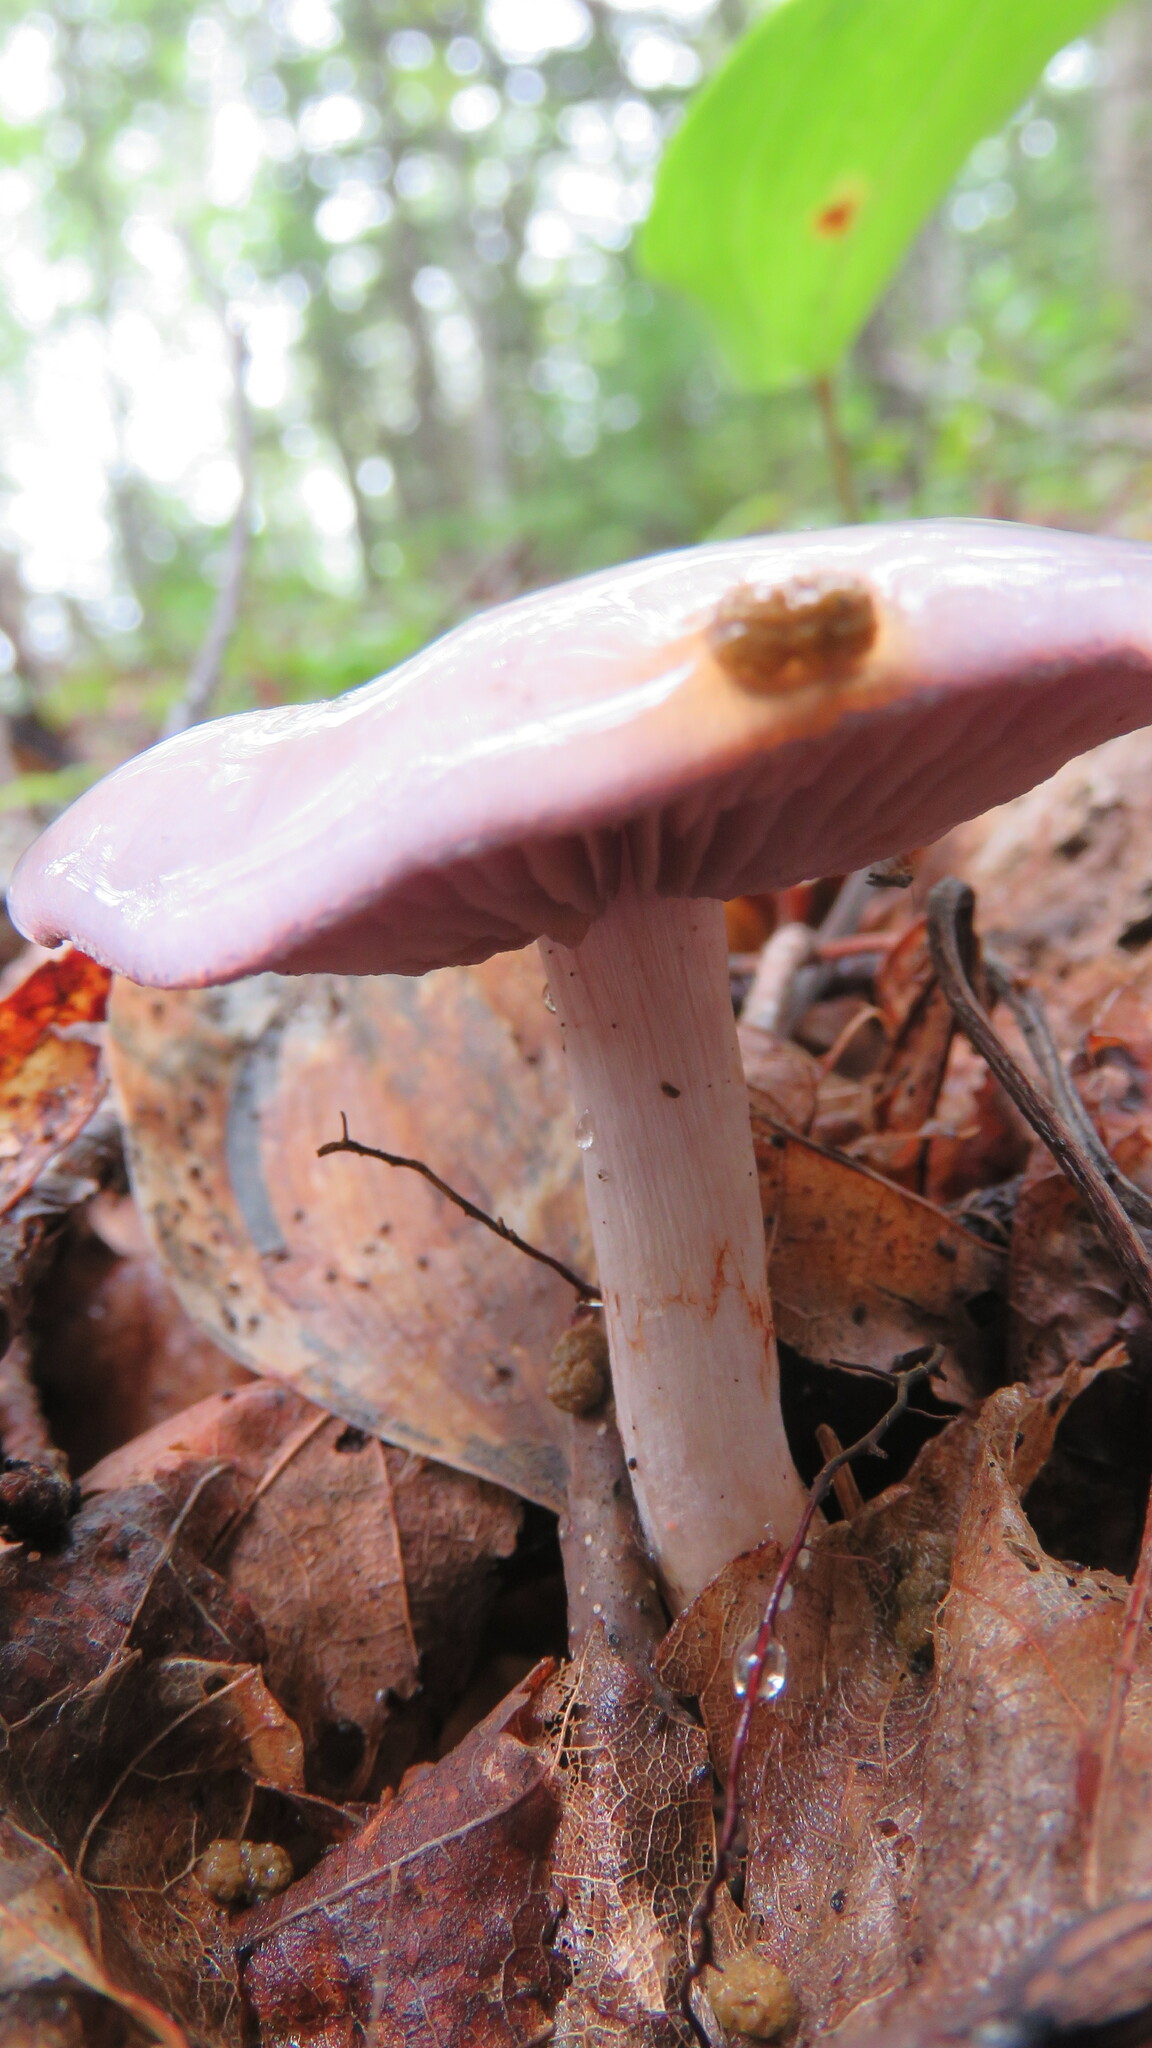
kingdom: Fungi
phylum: Basidiomycota
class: Agaricomycetes
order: Agaricales
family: Cortinariaceae
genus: Cortinarius
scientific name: Cortinarius iodes
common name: Viscid violet cort
